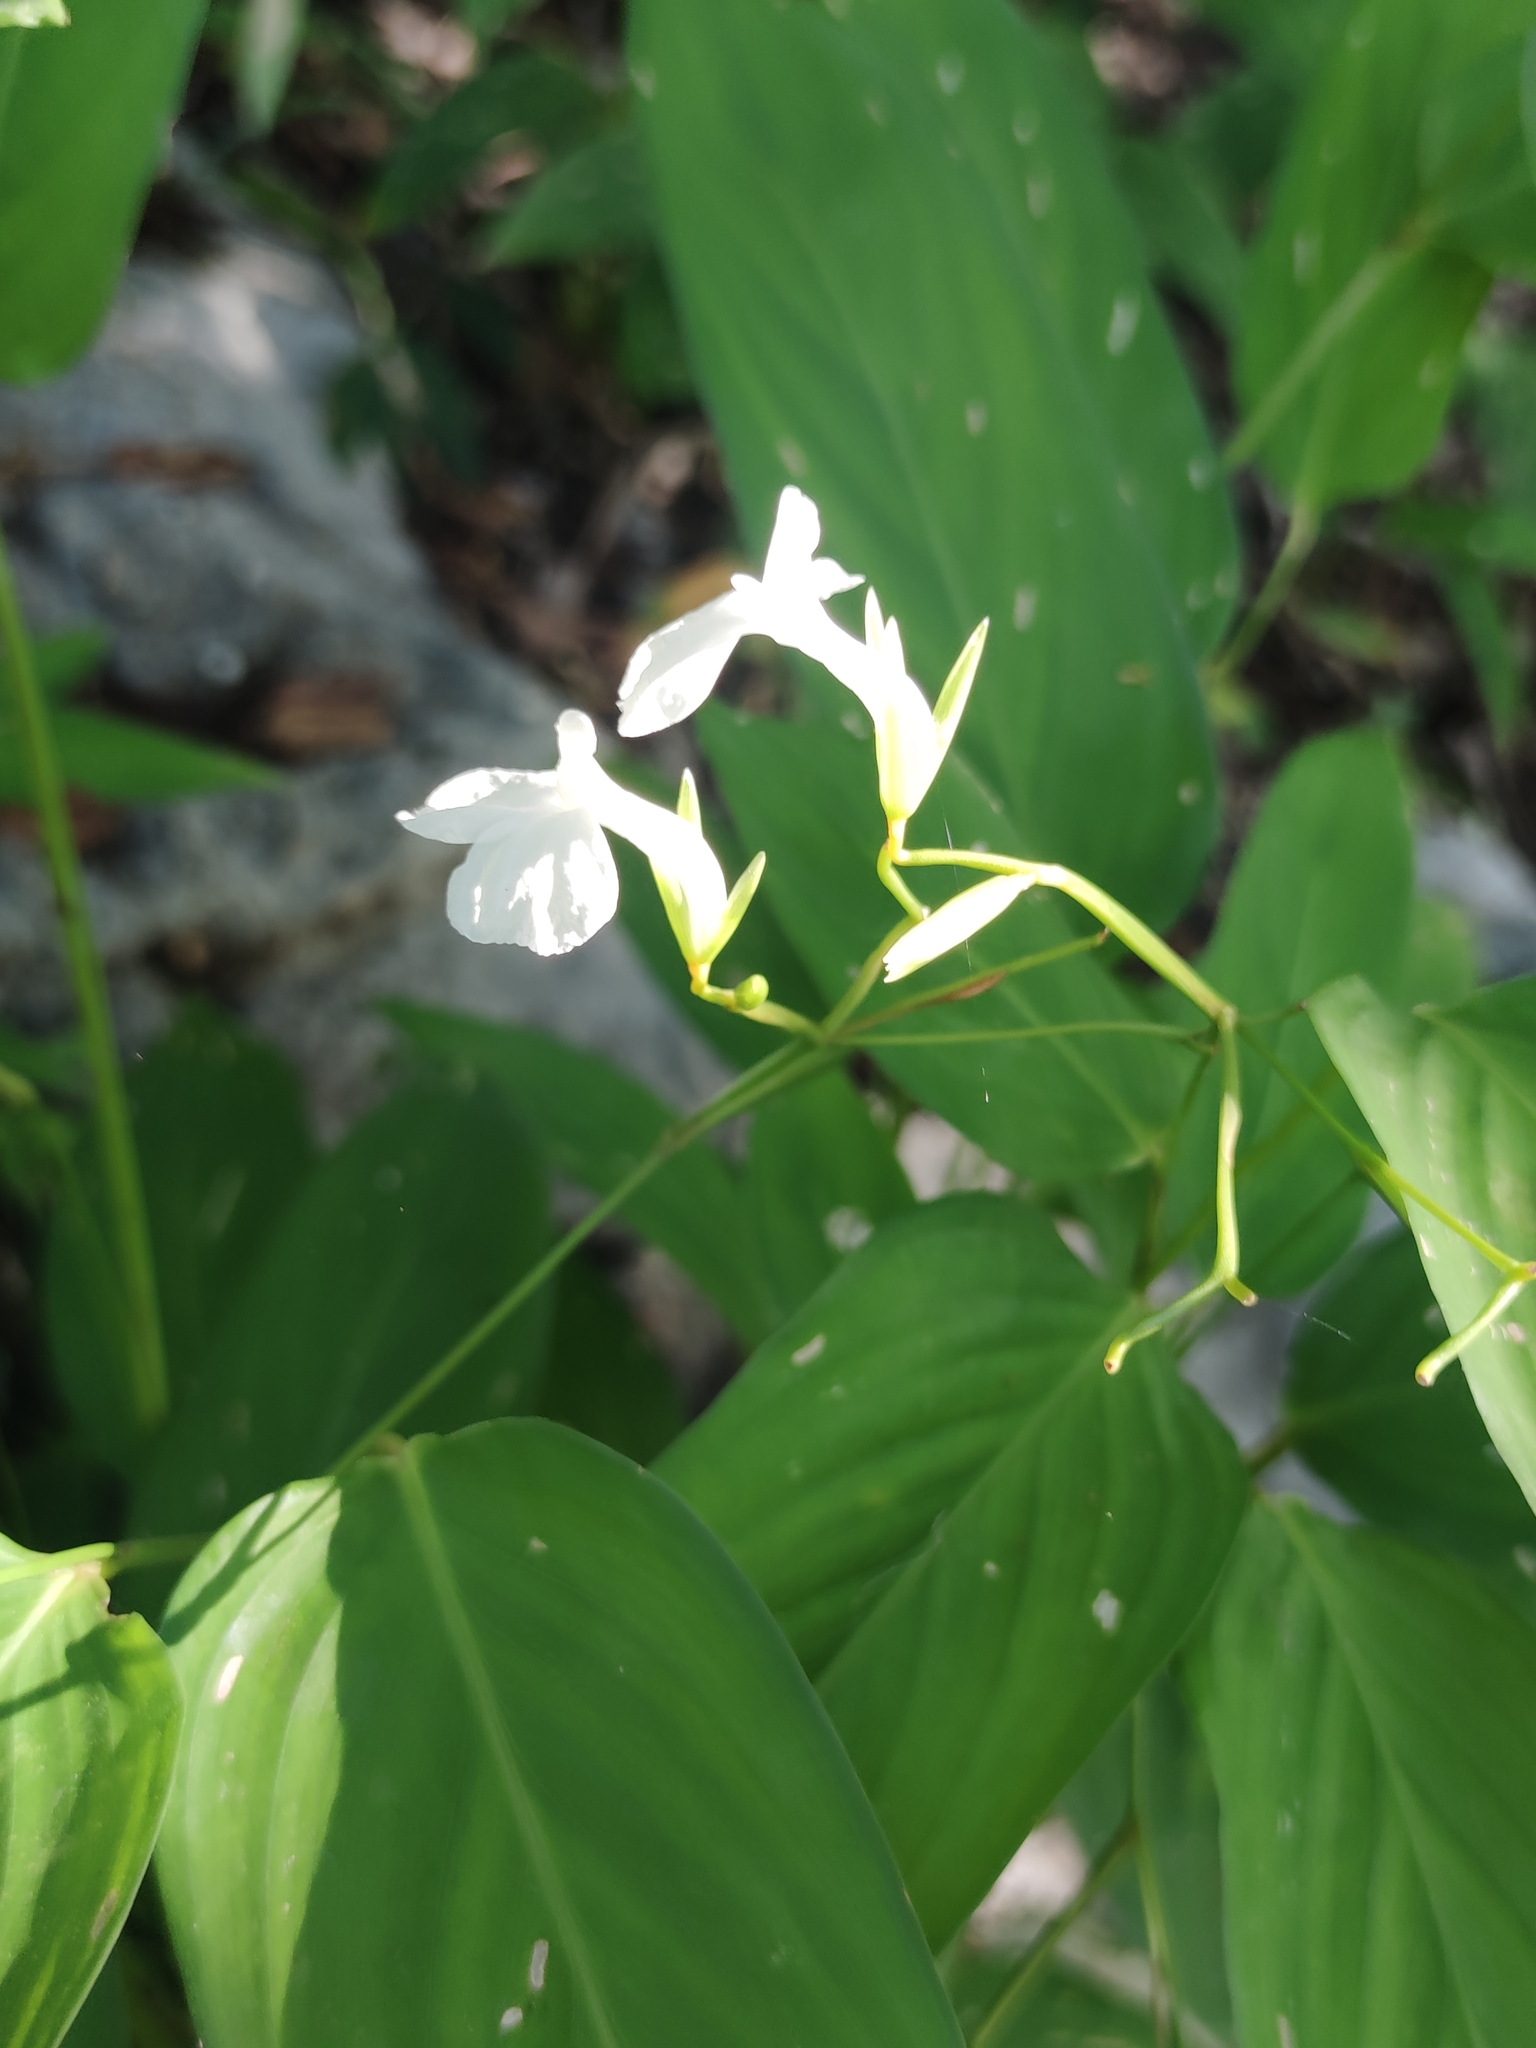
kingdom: Plantae
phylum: Tracheophyta
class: Liliopsida
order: Zingiberales
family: Marantaceae
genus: Maranta
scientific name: Maranta arundinacea
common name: Arrowroot
